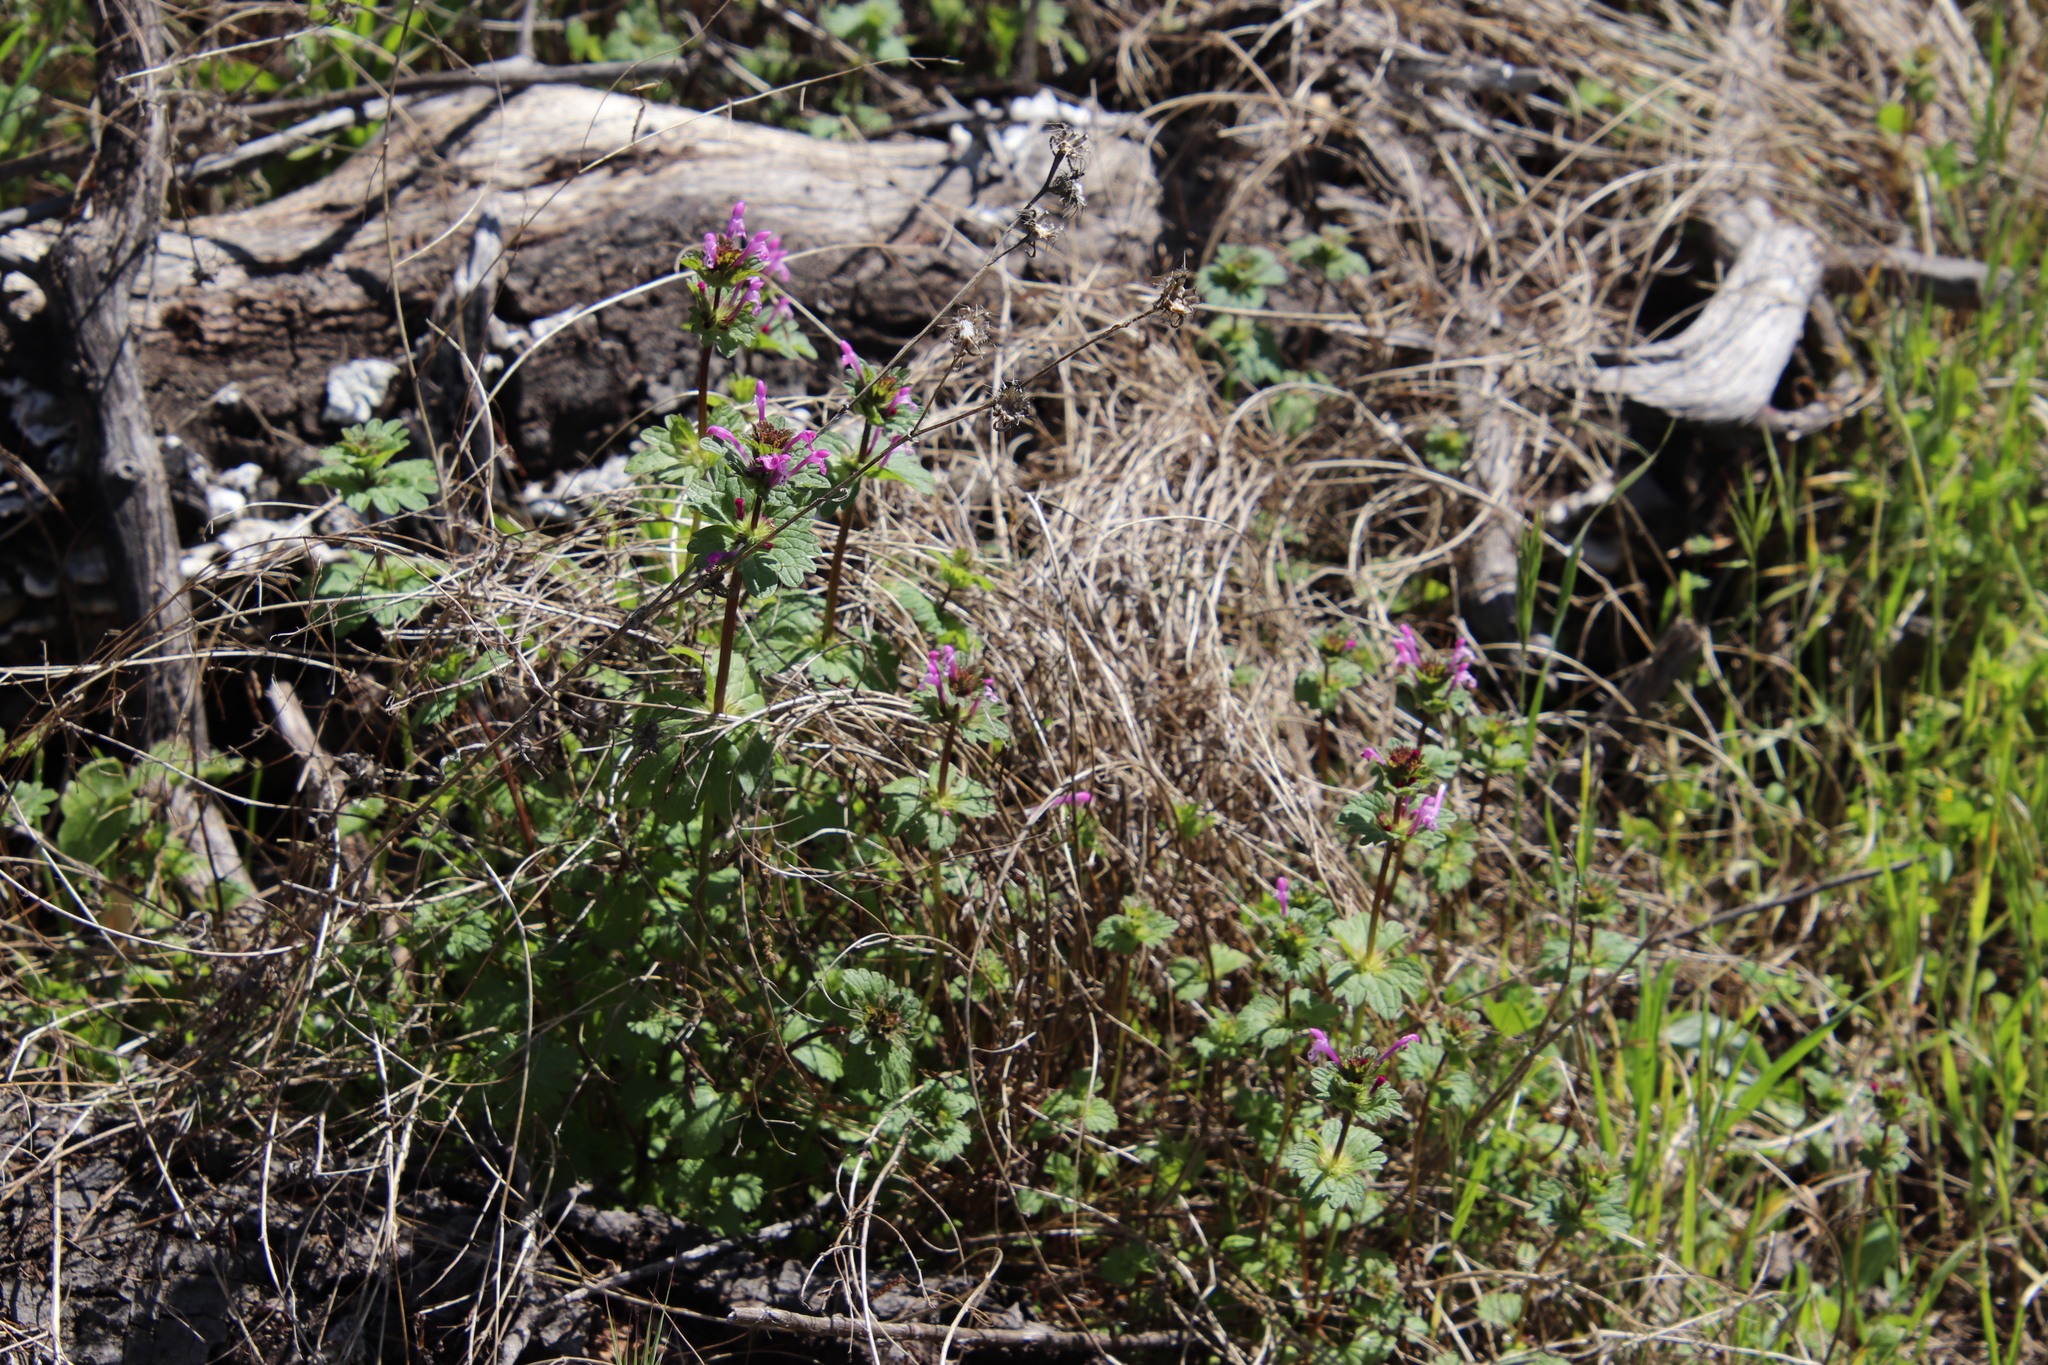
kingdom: Plantae
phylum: Tracheophyta
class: Magnoliopsida
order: Lamiales
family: Lamiaceae
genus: Lamium
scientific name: Lamium amplexicaule
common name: Henbit dead-nettle
